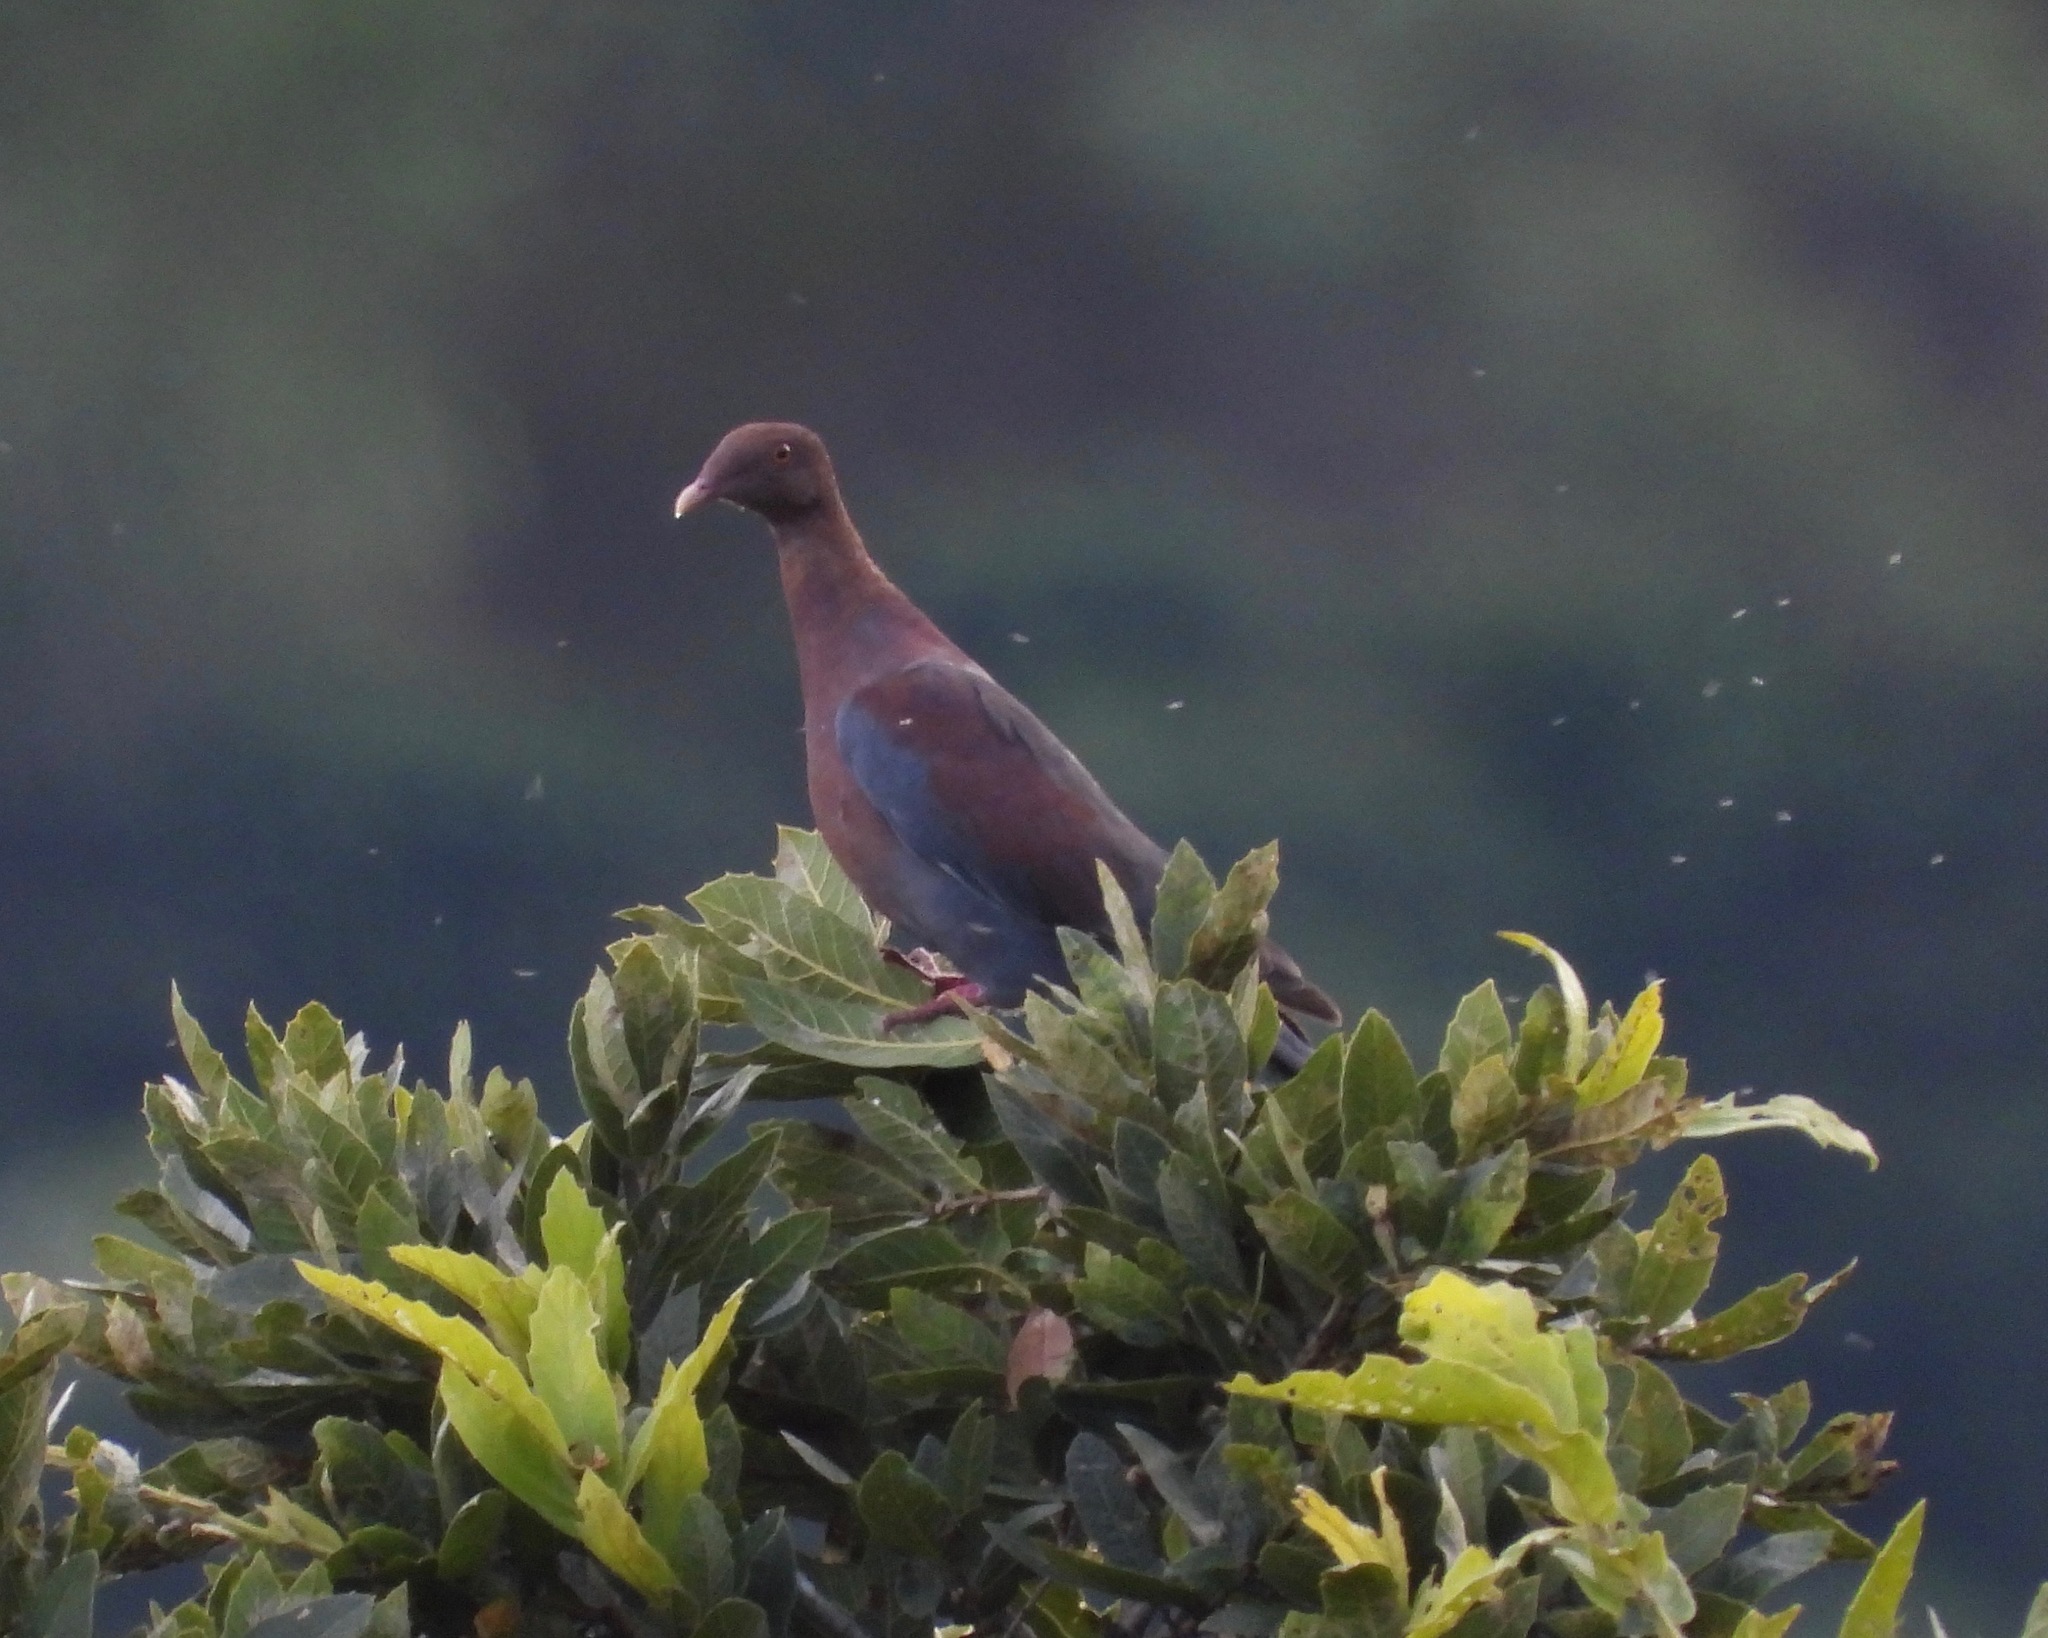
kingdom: Animalia
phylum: Chordata
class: Aves
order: Columbiformes
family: Columbidae
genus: Patagioenas
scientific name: Patagioenas flavirostris
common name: Red-billed pigeon
